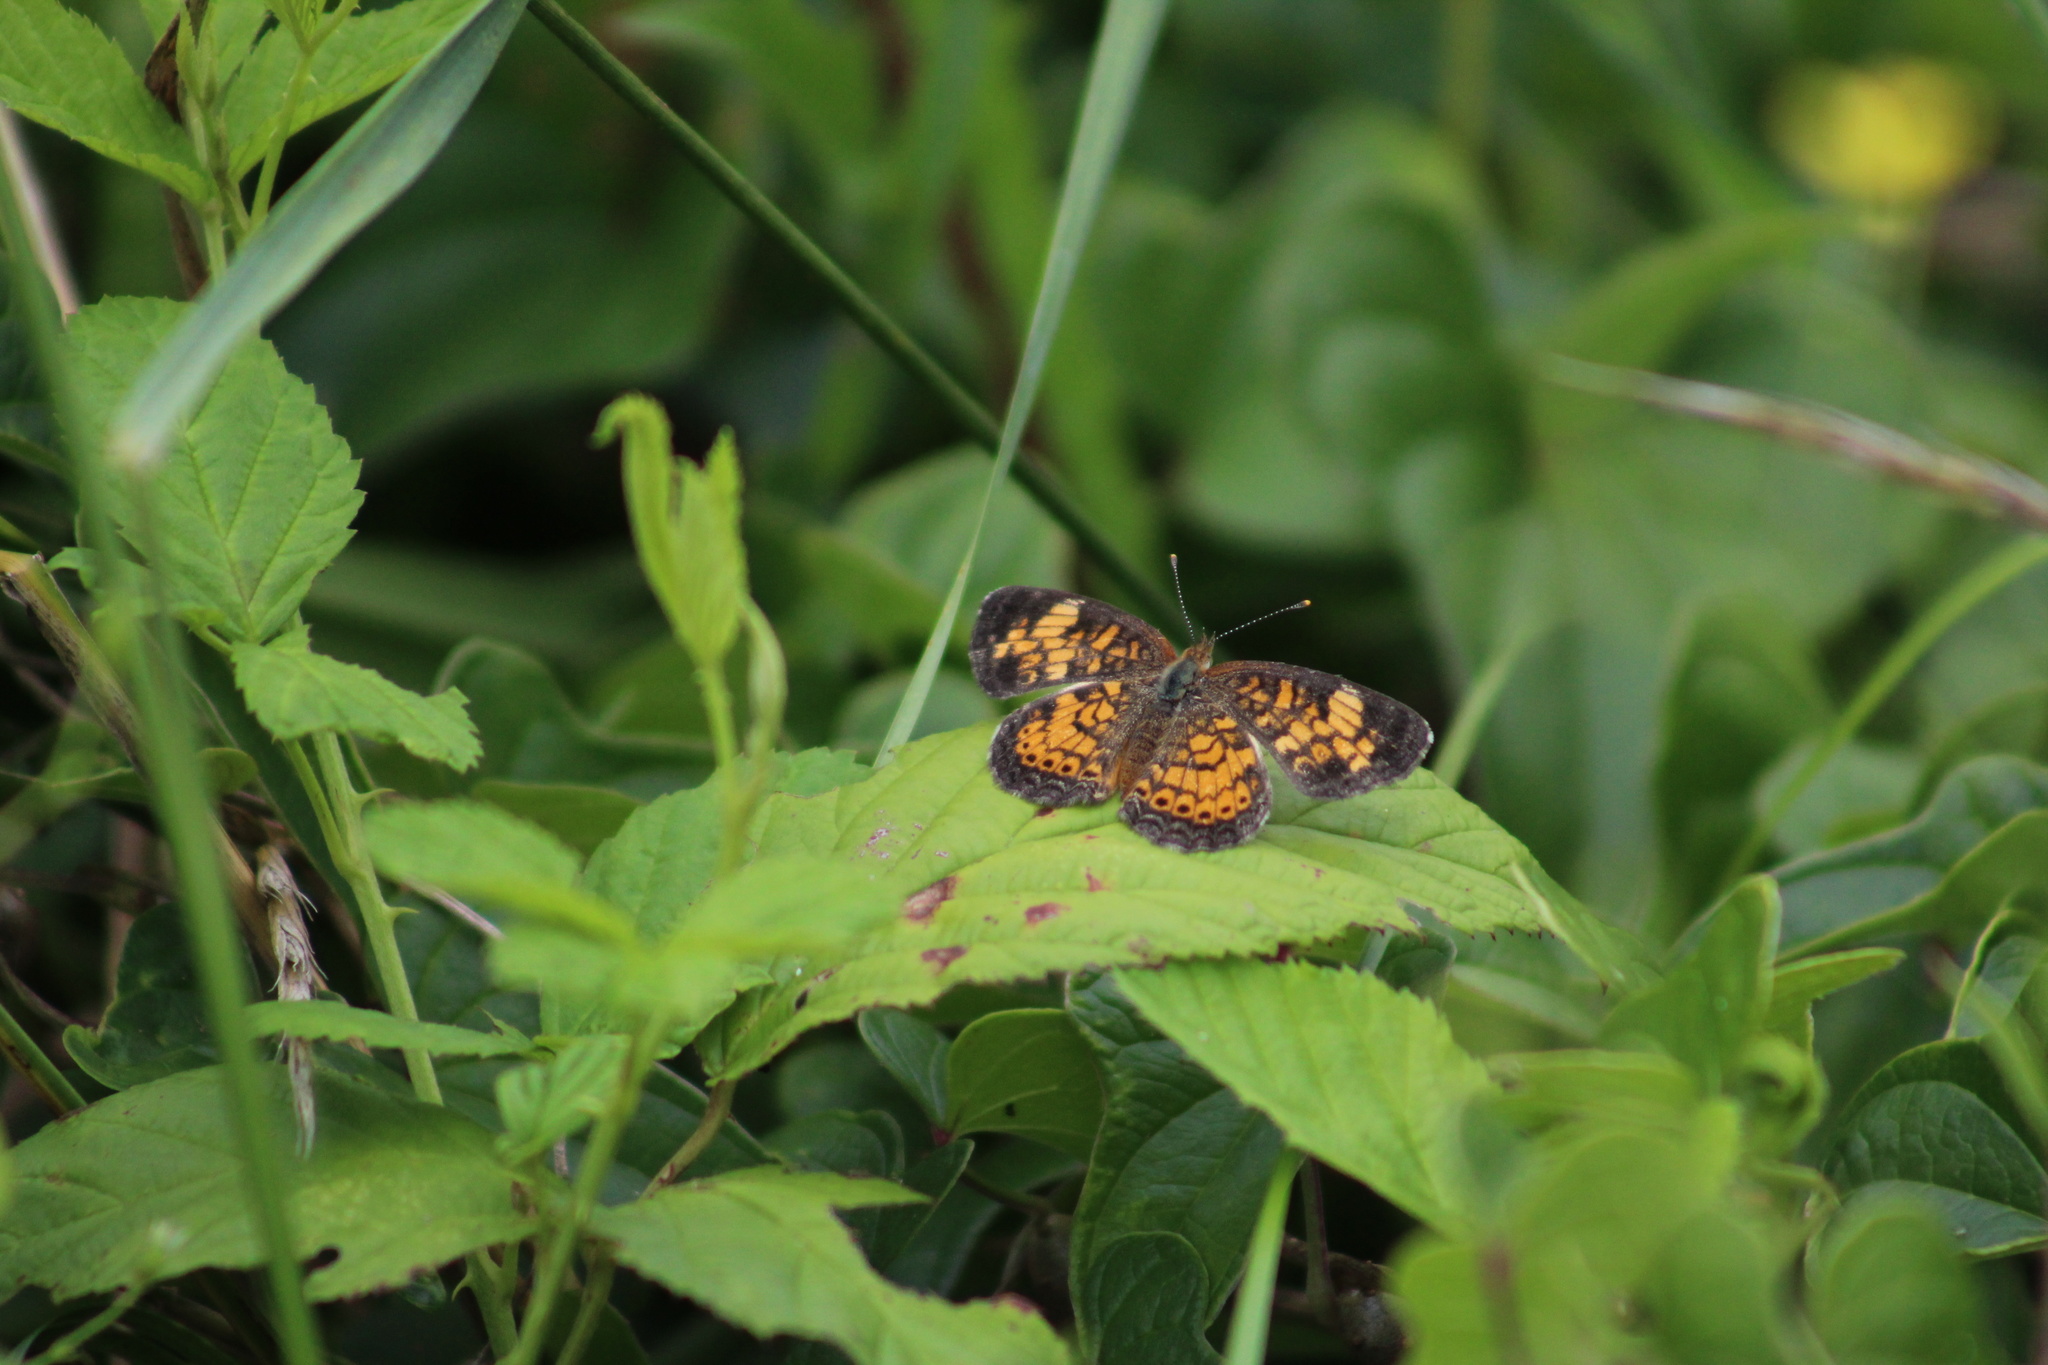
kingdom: Animalia
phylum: Arthropoda
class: Insecta
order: Lepidoptera
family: Nymphalidae
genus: Phyciodes
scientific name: Phyciodes tharos
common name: Pearl crescent
